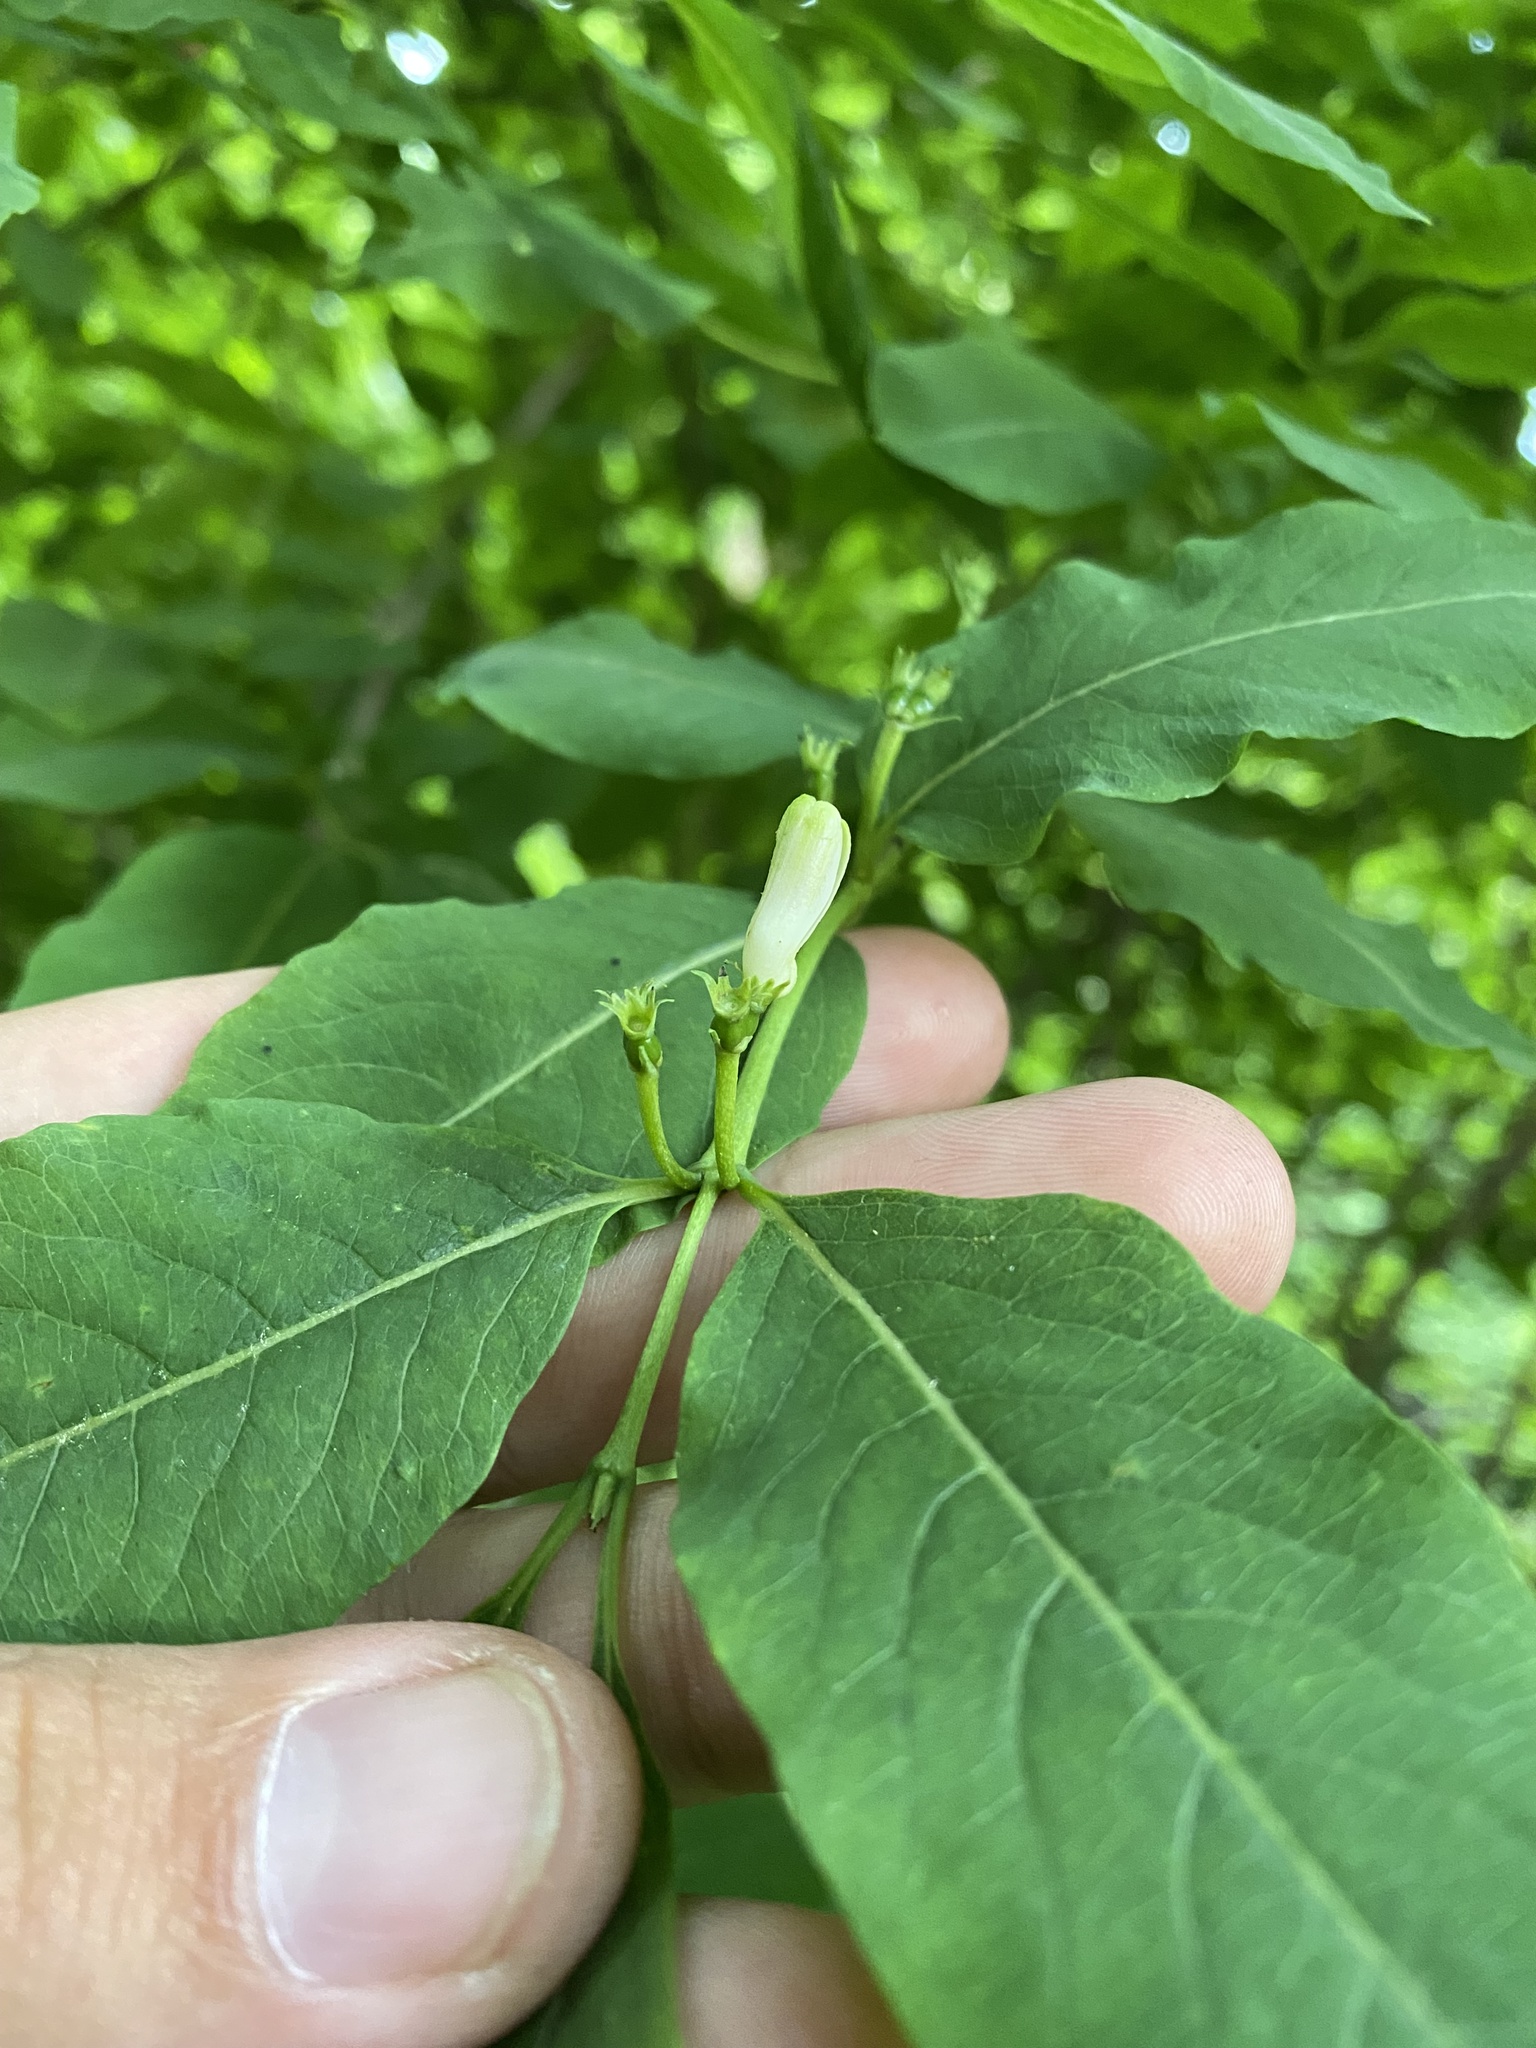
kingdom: Plantae
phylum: Tracheophyta
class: Magnoliopsida
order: Dipsacales
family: Caprifoliaceae
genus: Lonicera
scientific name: Lonicera caucasica
